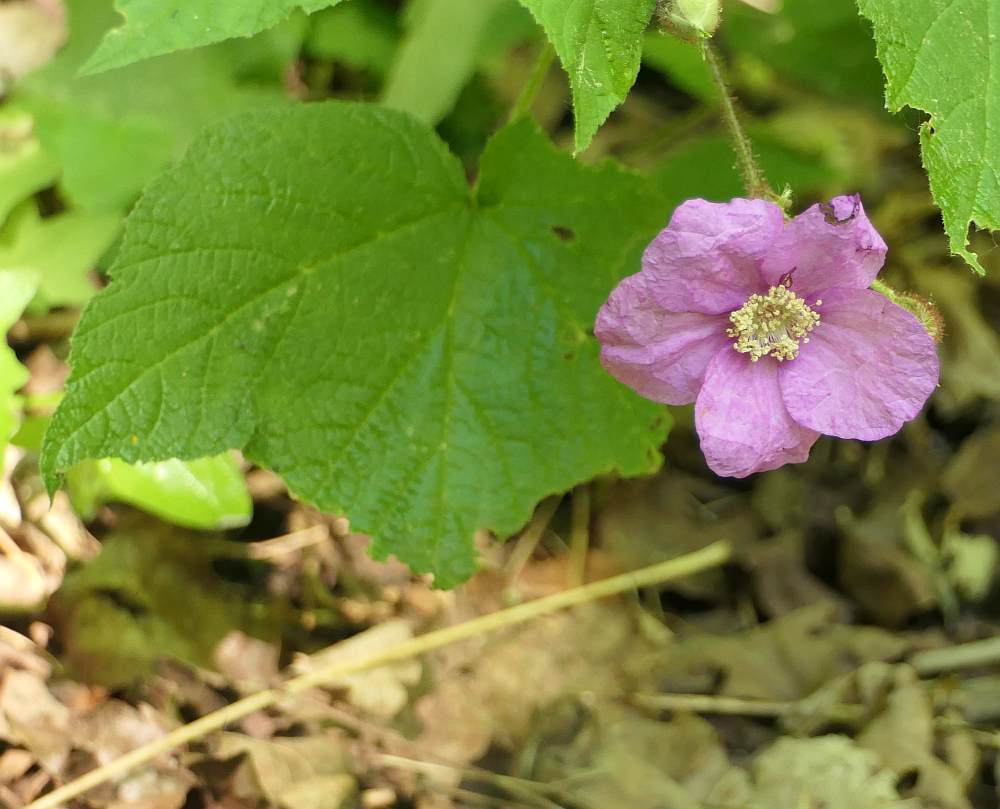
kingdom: Plantae
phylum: Tracheophyta
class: Magnoliopsida
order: Rosales
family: Rosaceae
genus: Rubus
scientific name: Rubus odoratus
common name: Purple-flowered raspberry
